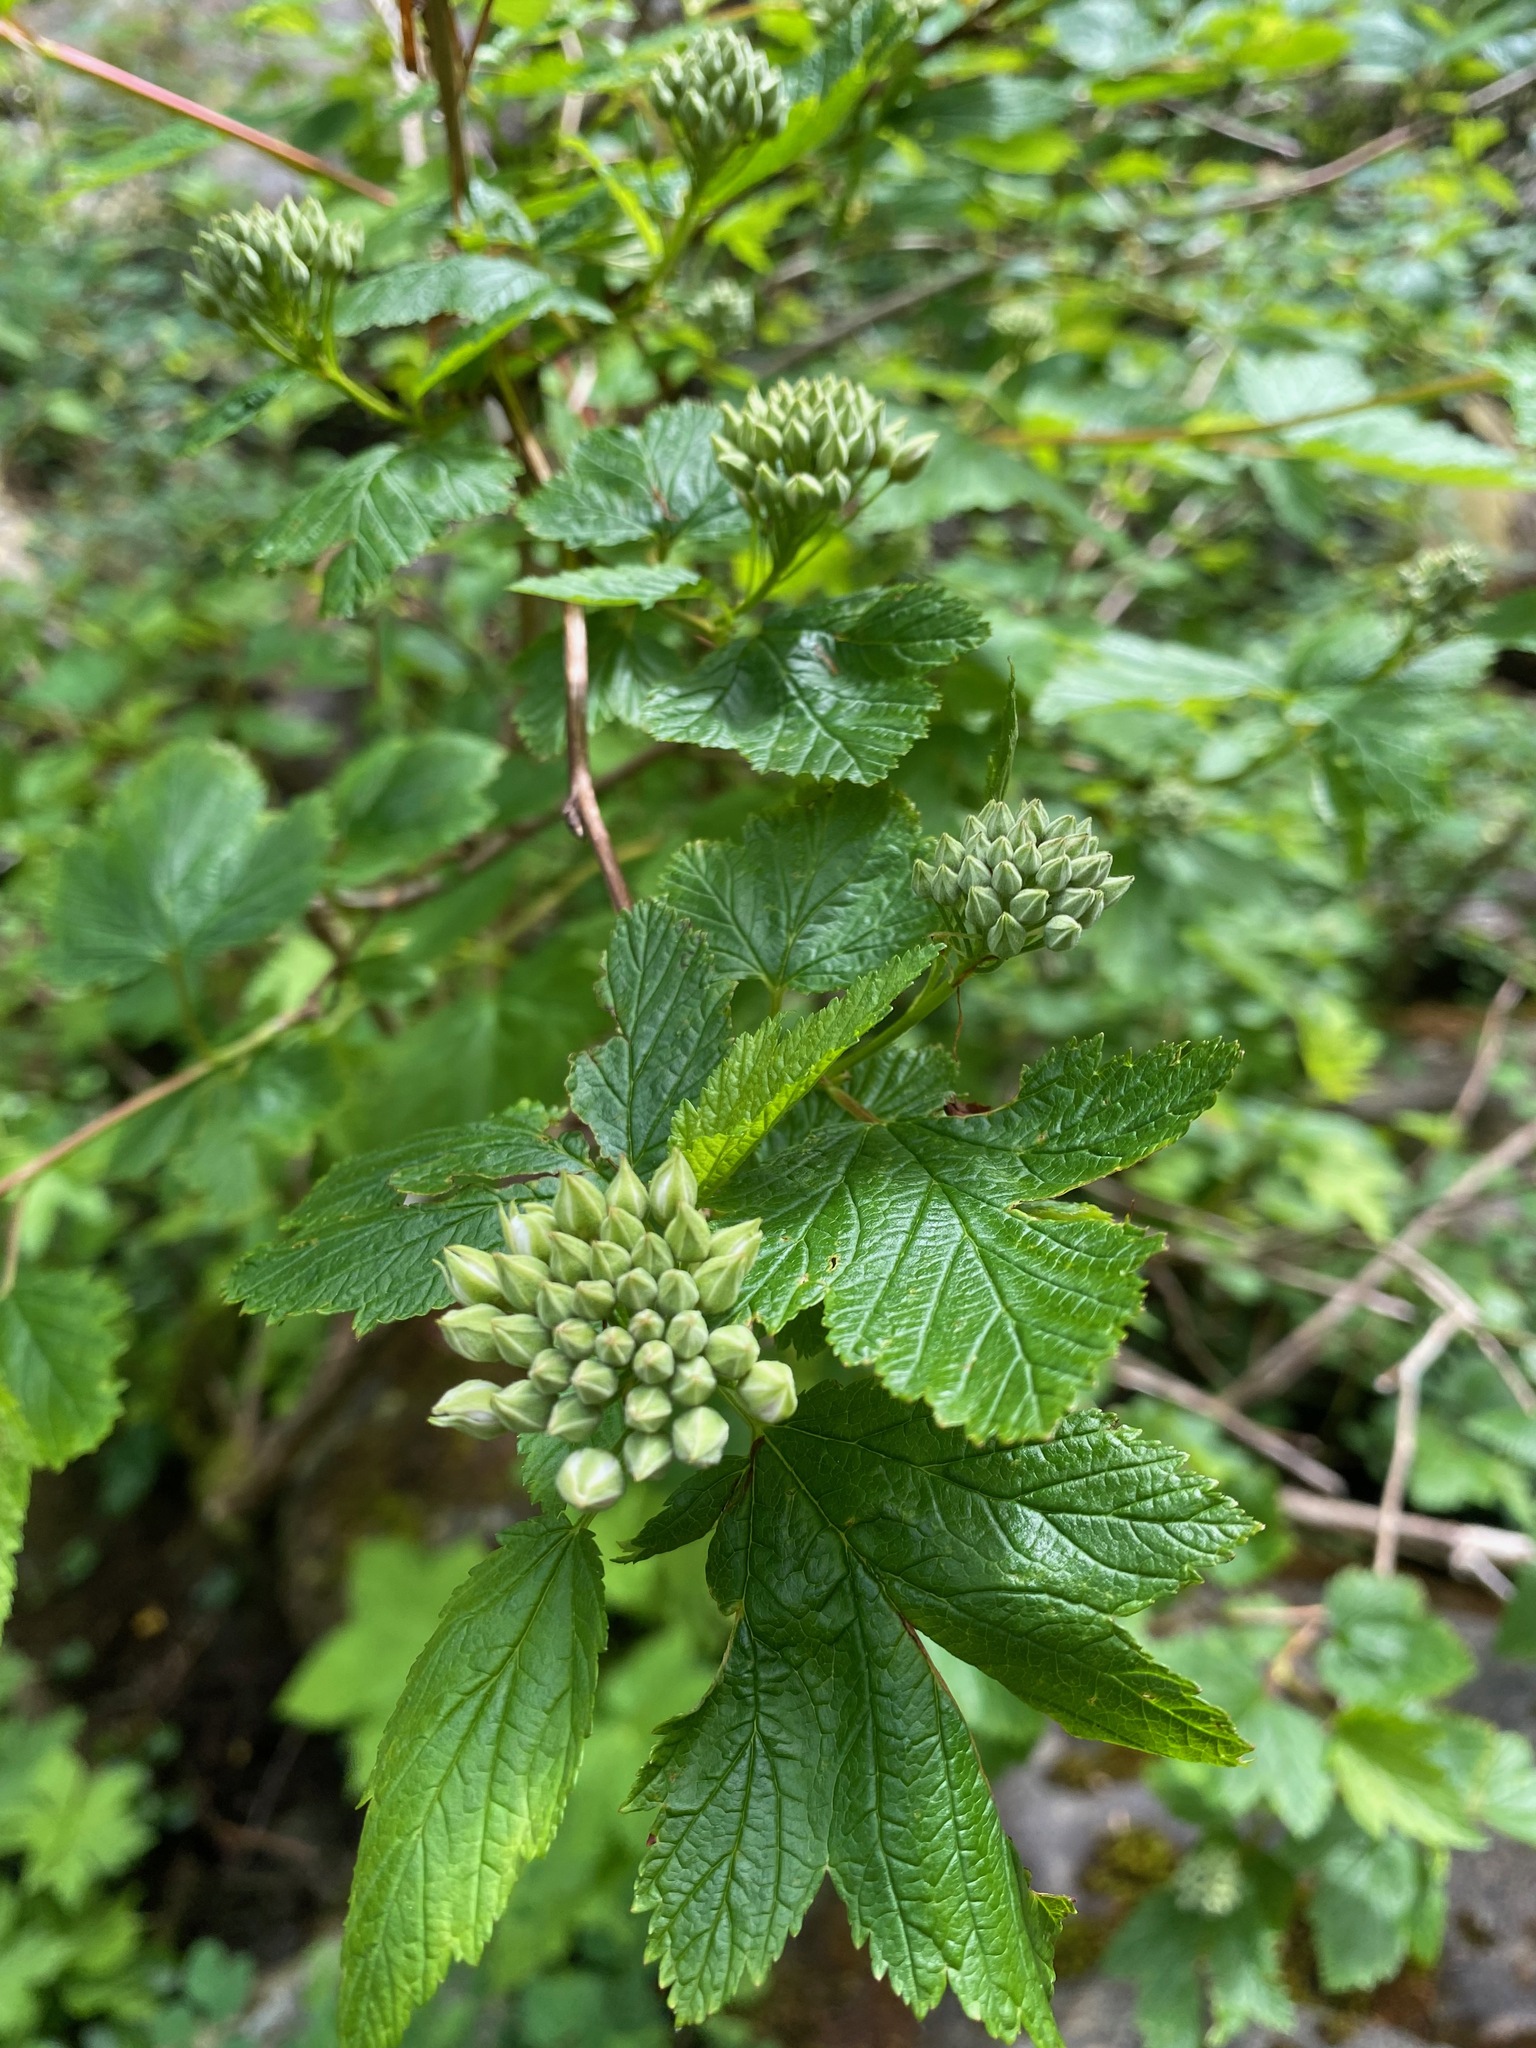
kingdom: Plantae
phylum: Tracheophyta
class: Magnoliopsida
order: Rosales
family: Rosaceae
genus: Physocarpus
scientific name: Physocarpus capitatus
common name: Pacific ninebark
